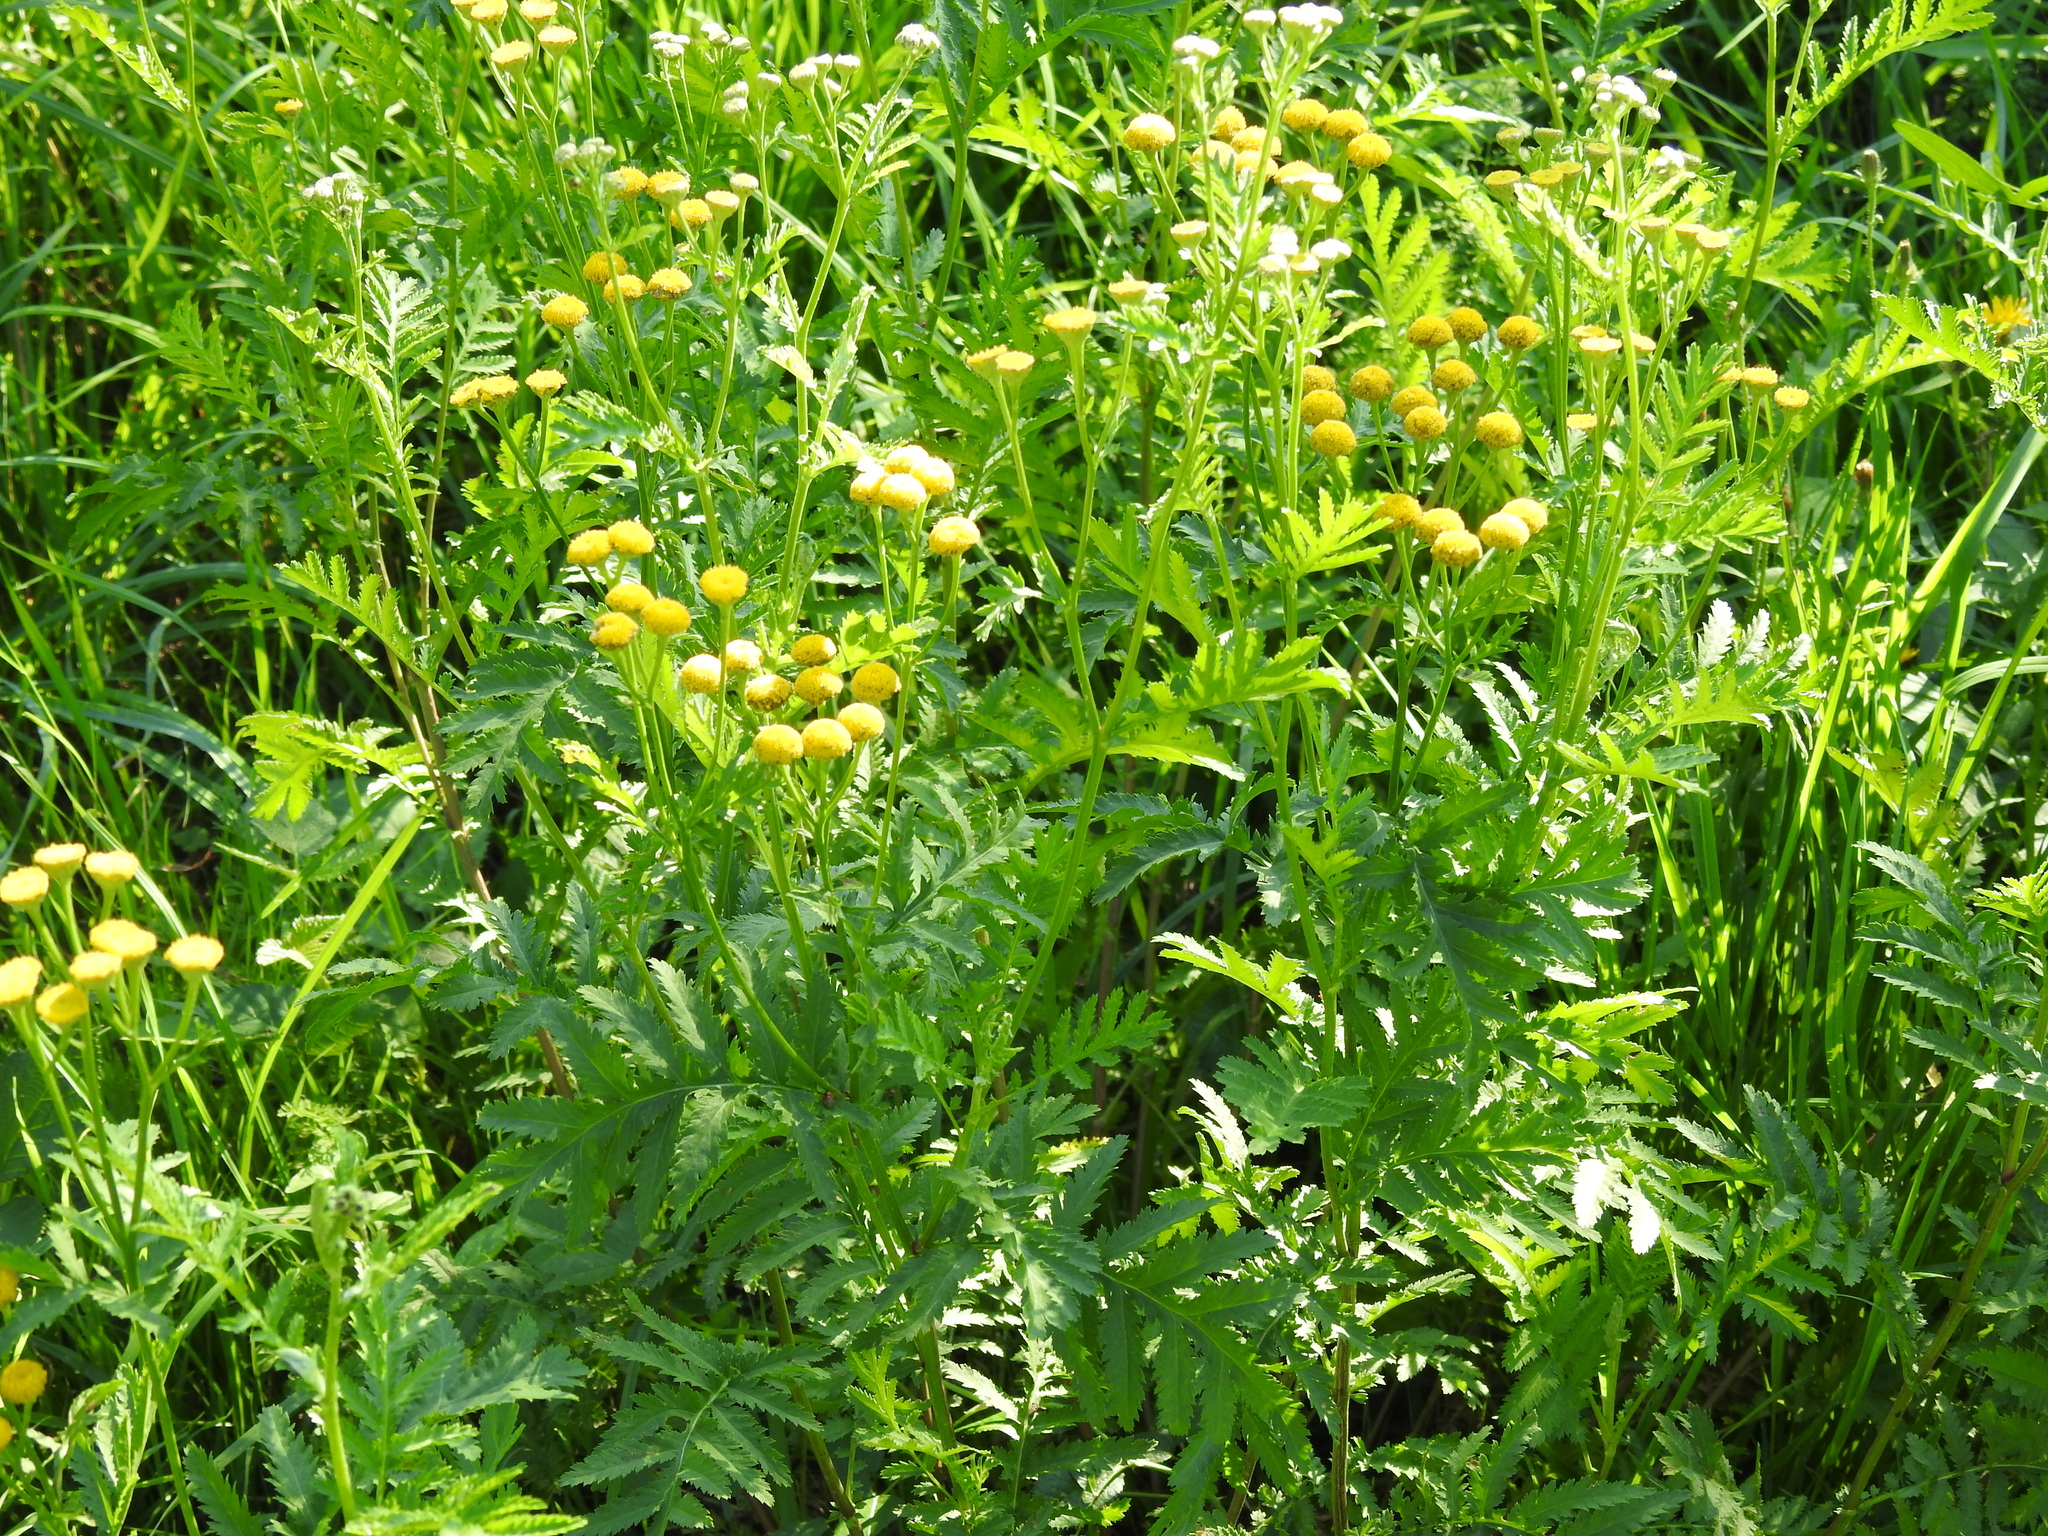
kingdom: Plantae
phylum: Tracheophyta
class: Magnoliopsida
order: Asterales
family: Asteraceae
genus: Tanacetum
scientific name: Tanacetum vulgare
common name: Common tansy
